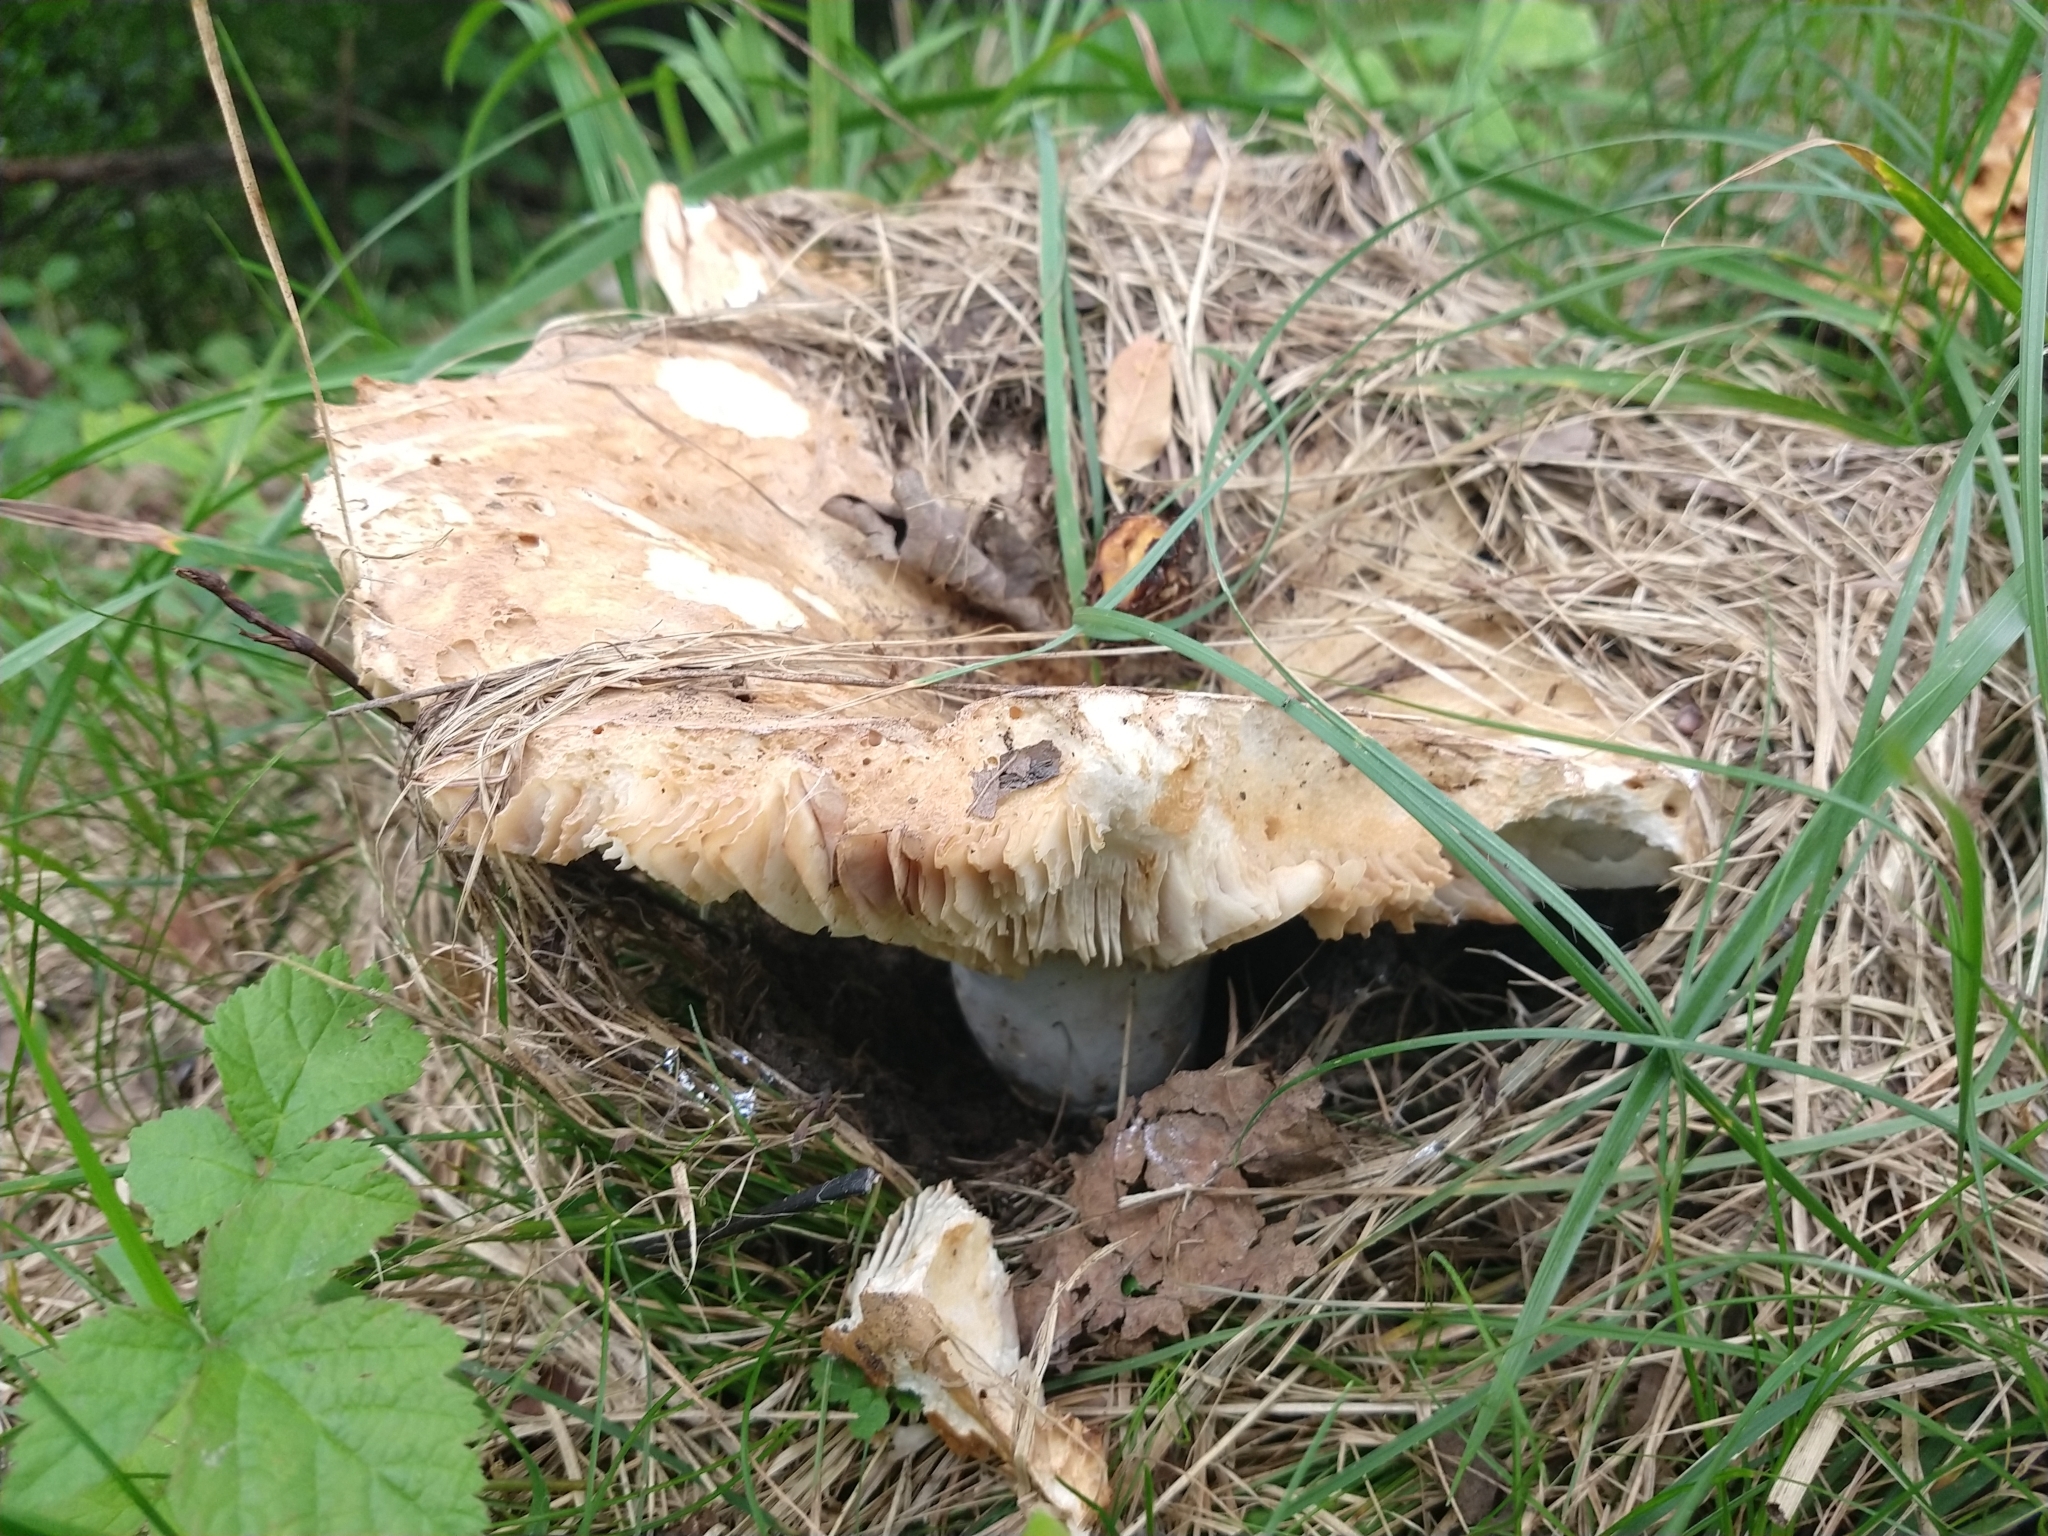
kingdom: Fungi
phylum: Basidiomycota
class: Agaricomycetes
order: Russulales
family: Russulaceae
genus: Russula
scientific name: Russula delica
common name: Milk white brittlegill
